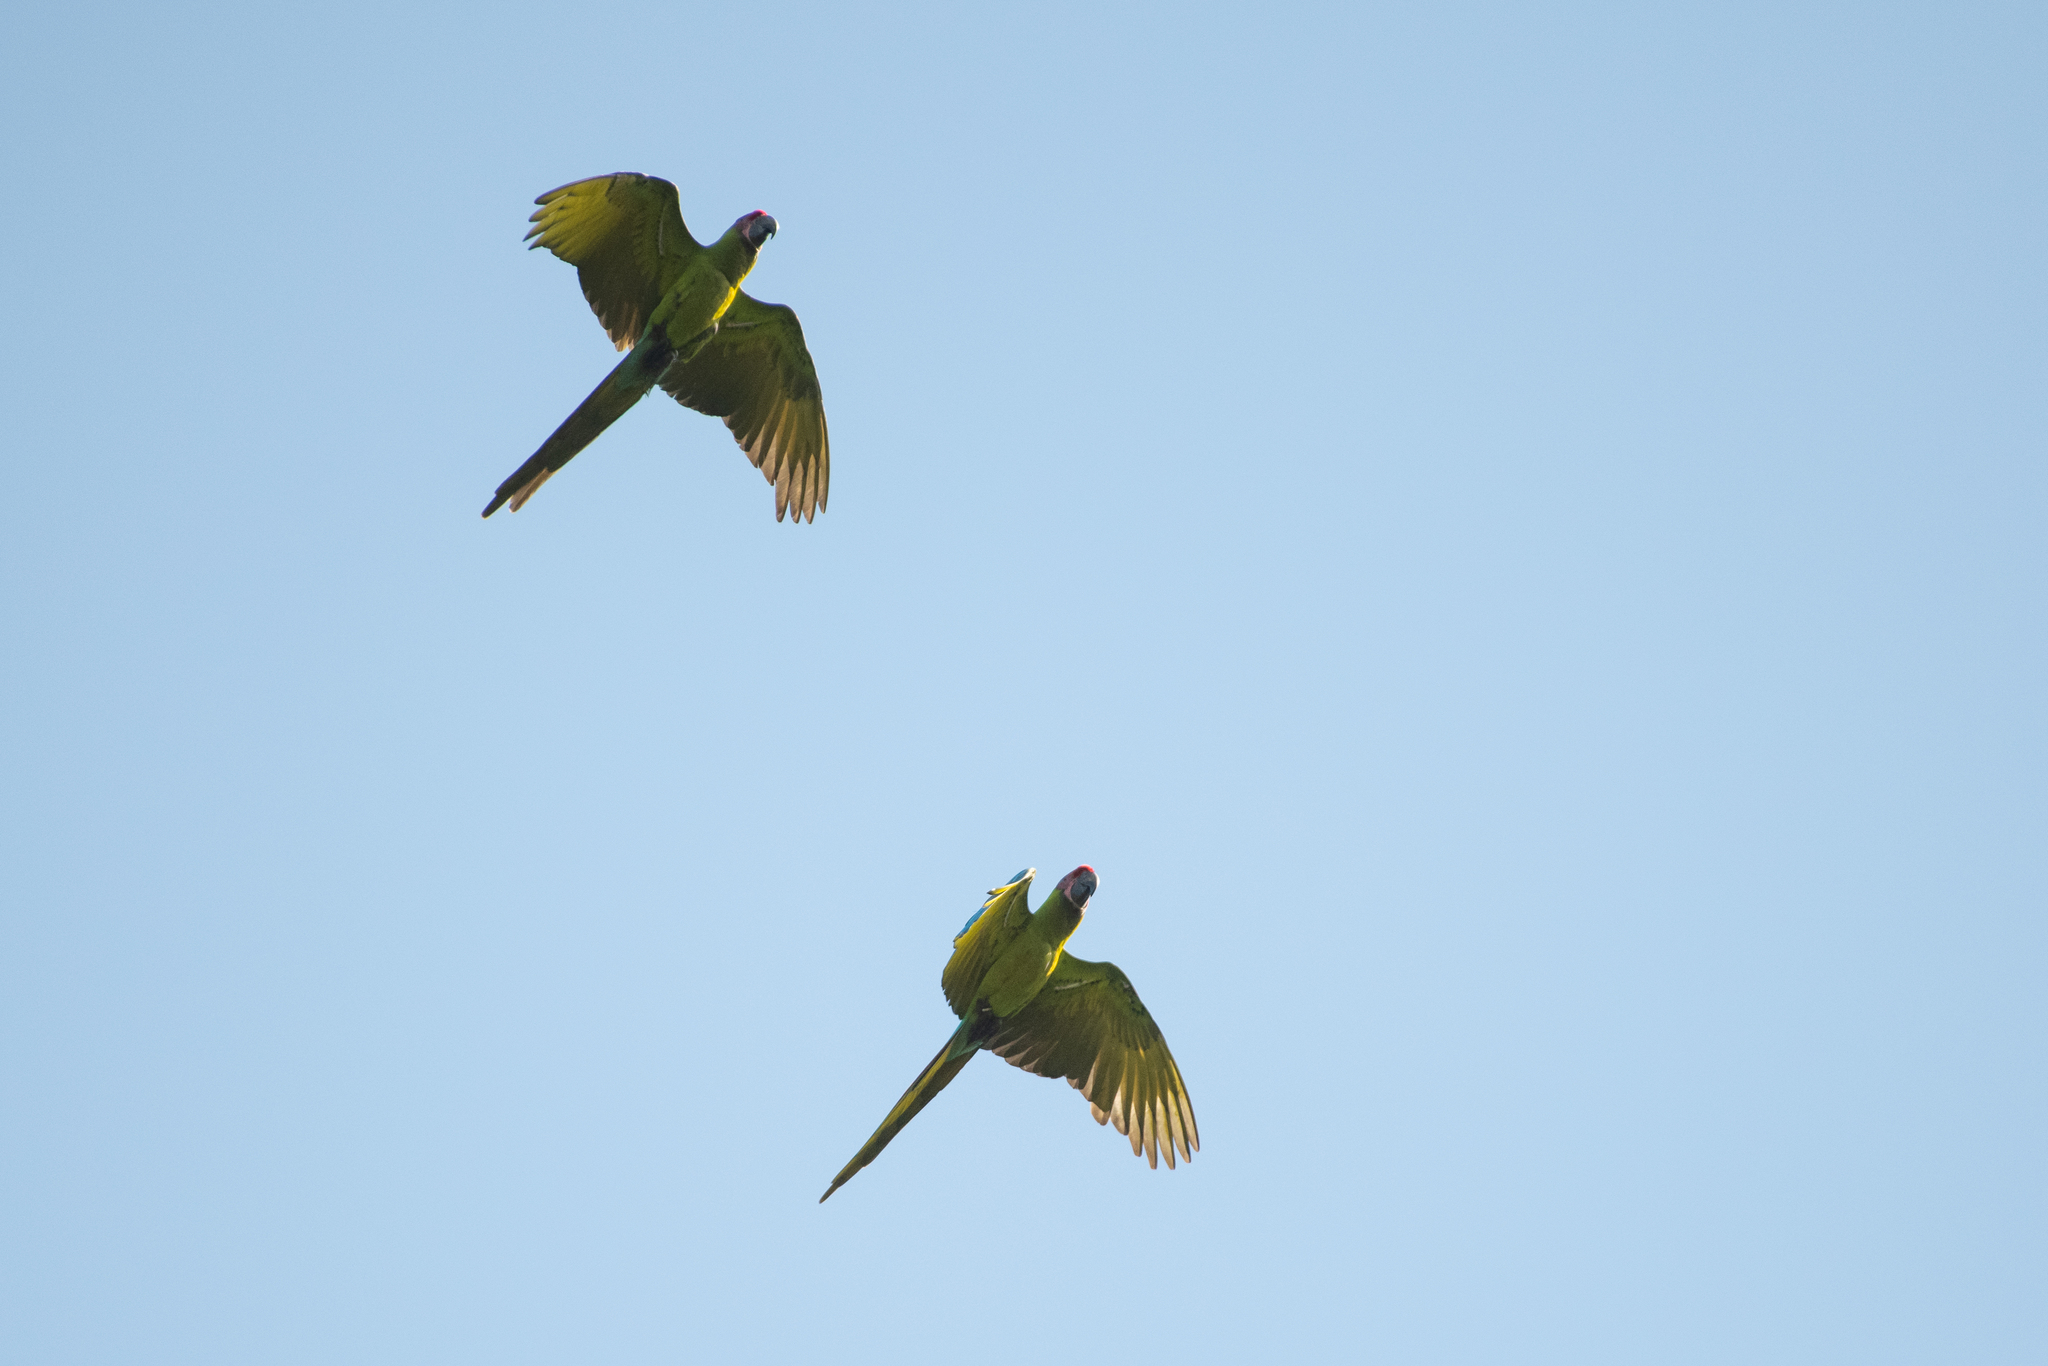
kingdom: Animalia
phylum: Chordata
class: Aves
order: Psittaciformes
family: Psittacidae
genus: Ara
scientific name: Ara ambiguus
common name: Great green macaw
